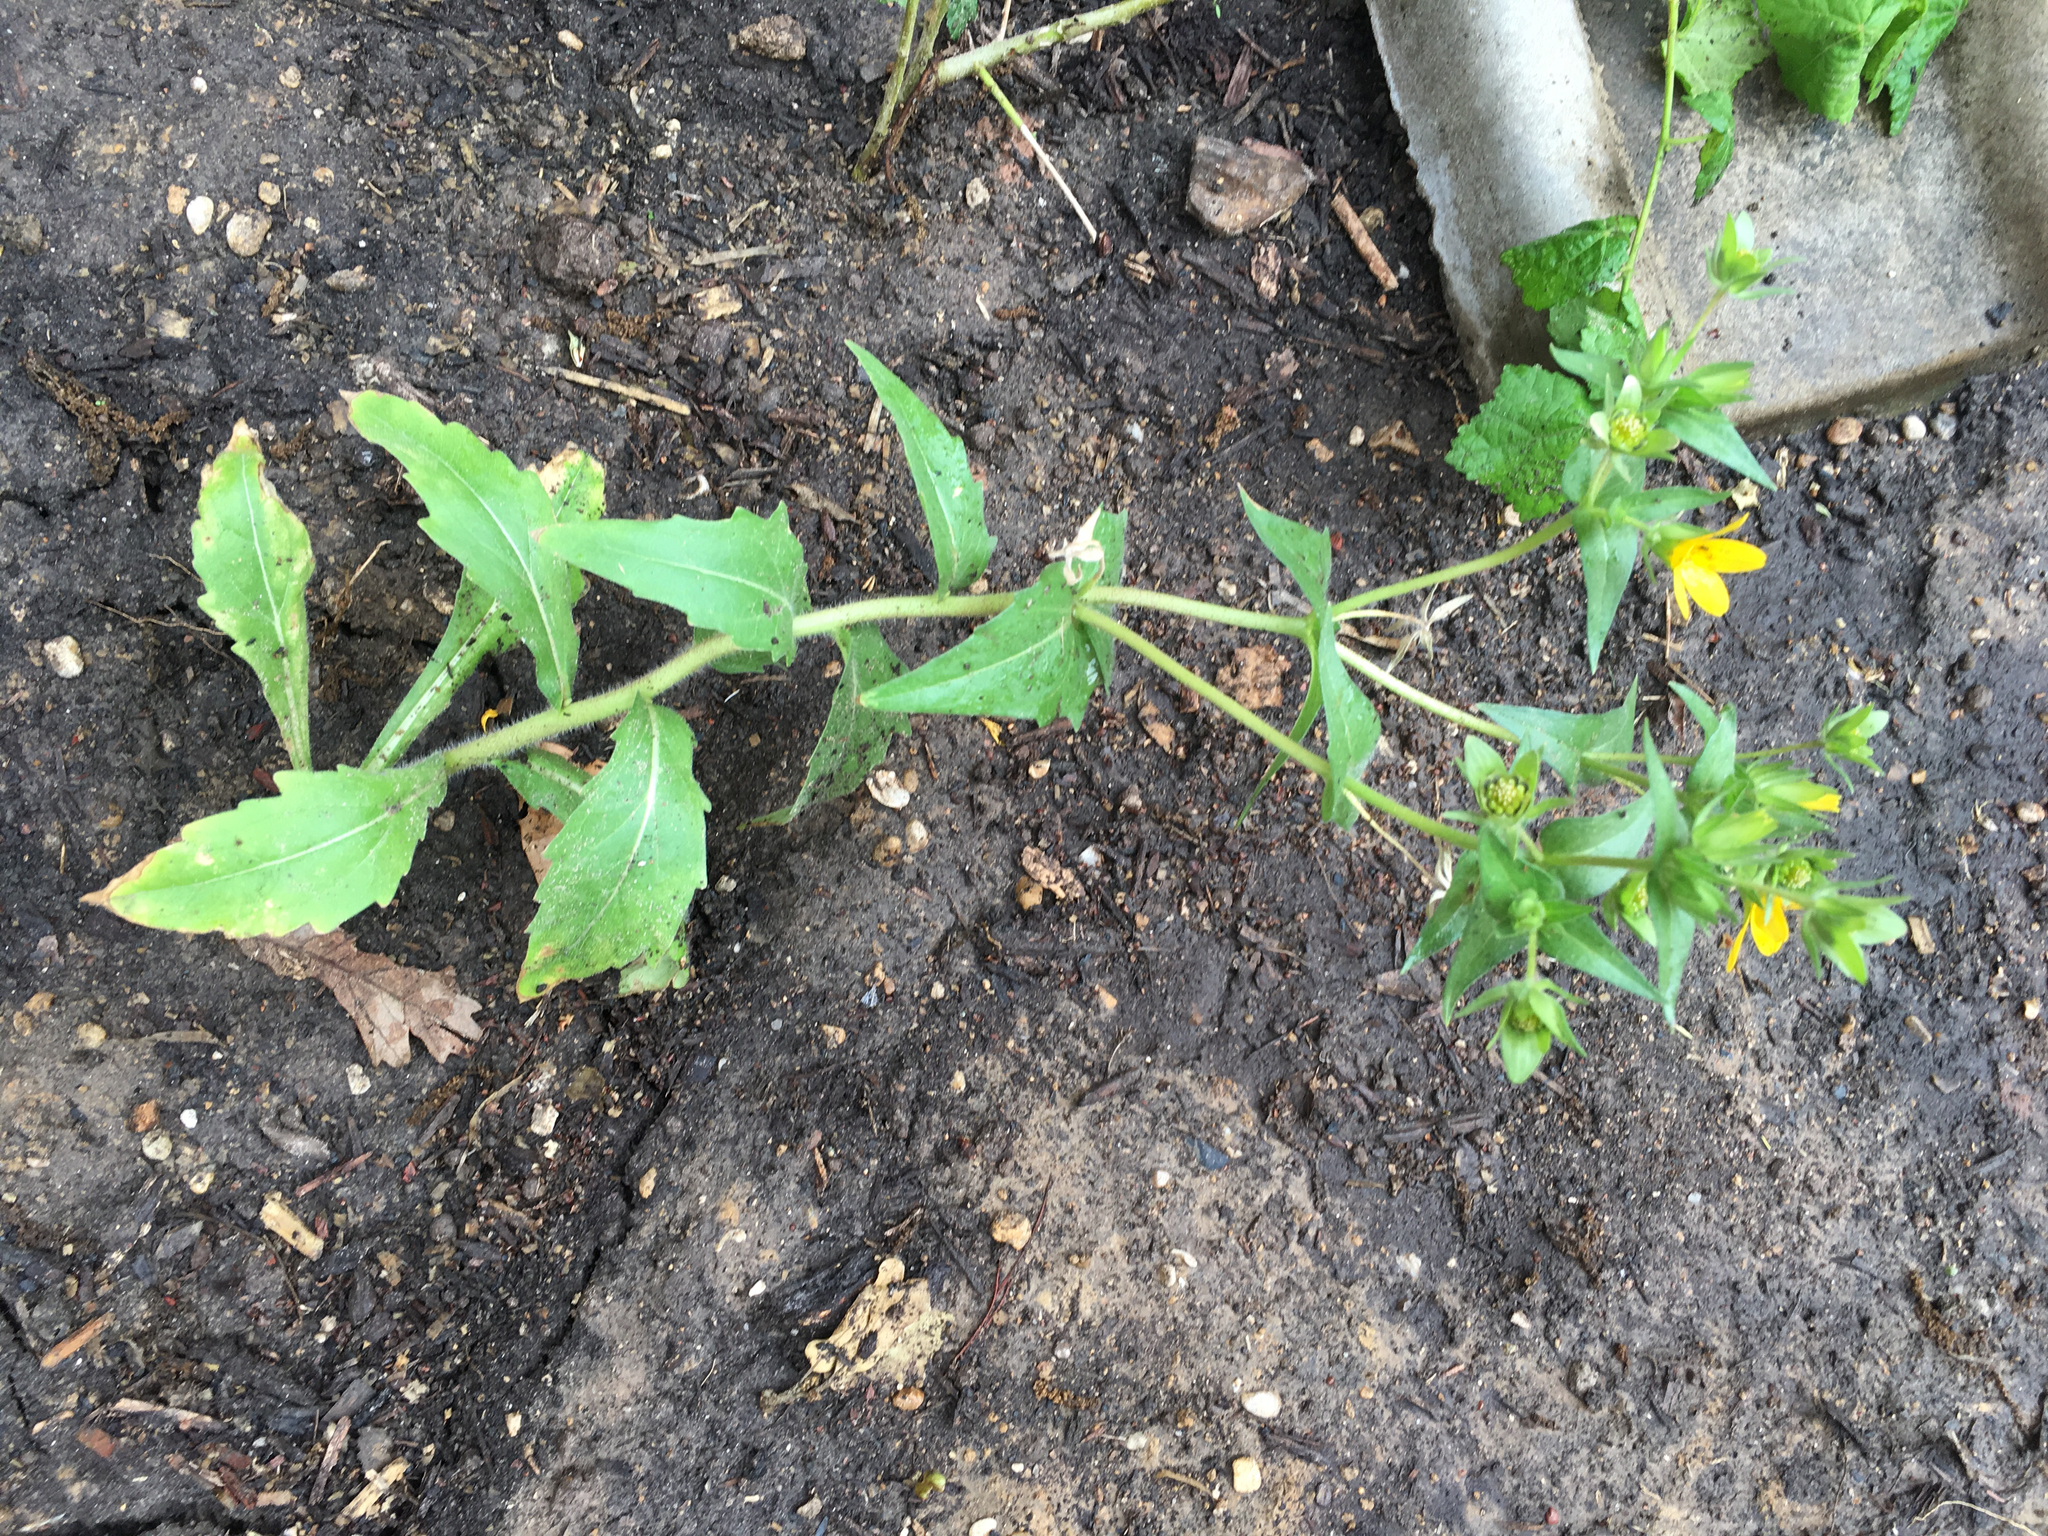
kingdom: Plantae
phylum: Tracheophyta
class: Magnoliopsida
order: Asterales
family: Asteraceae
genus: Lindheimera
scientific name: Lindheimera texana
